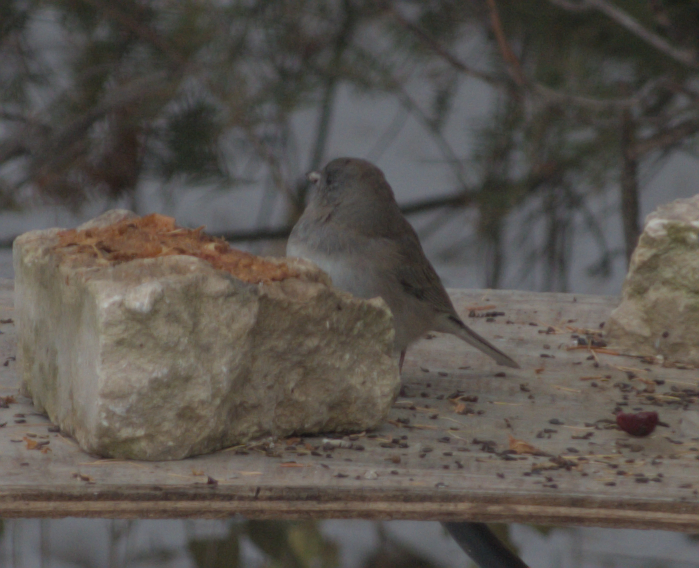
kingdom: Animalia
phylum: Chordata
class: Aves
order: Passeriformes
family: Passerellidae
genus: Junco
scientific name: Junco hyemalis
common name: Dark-eyed junco
